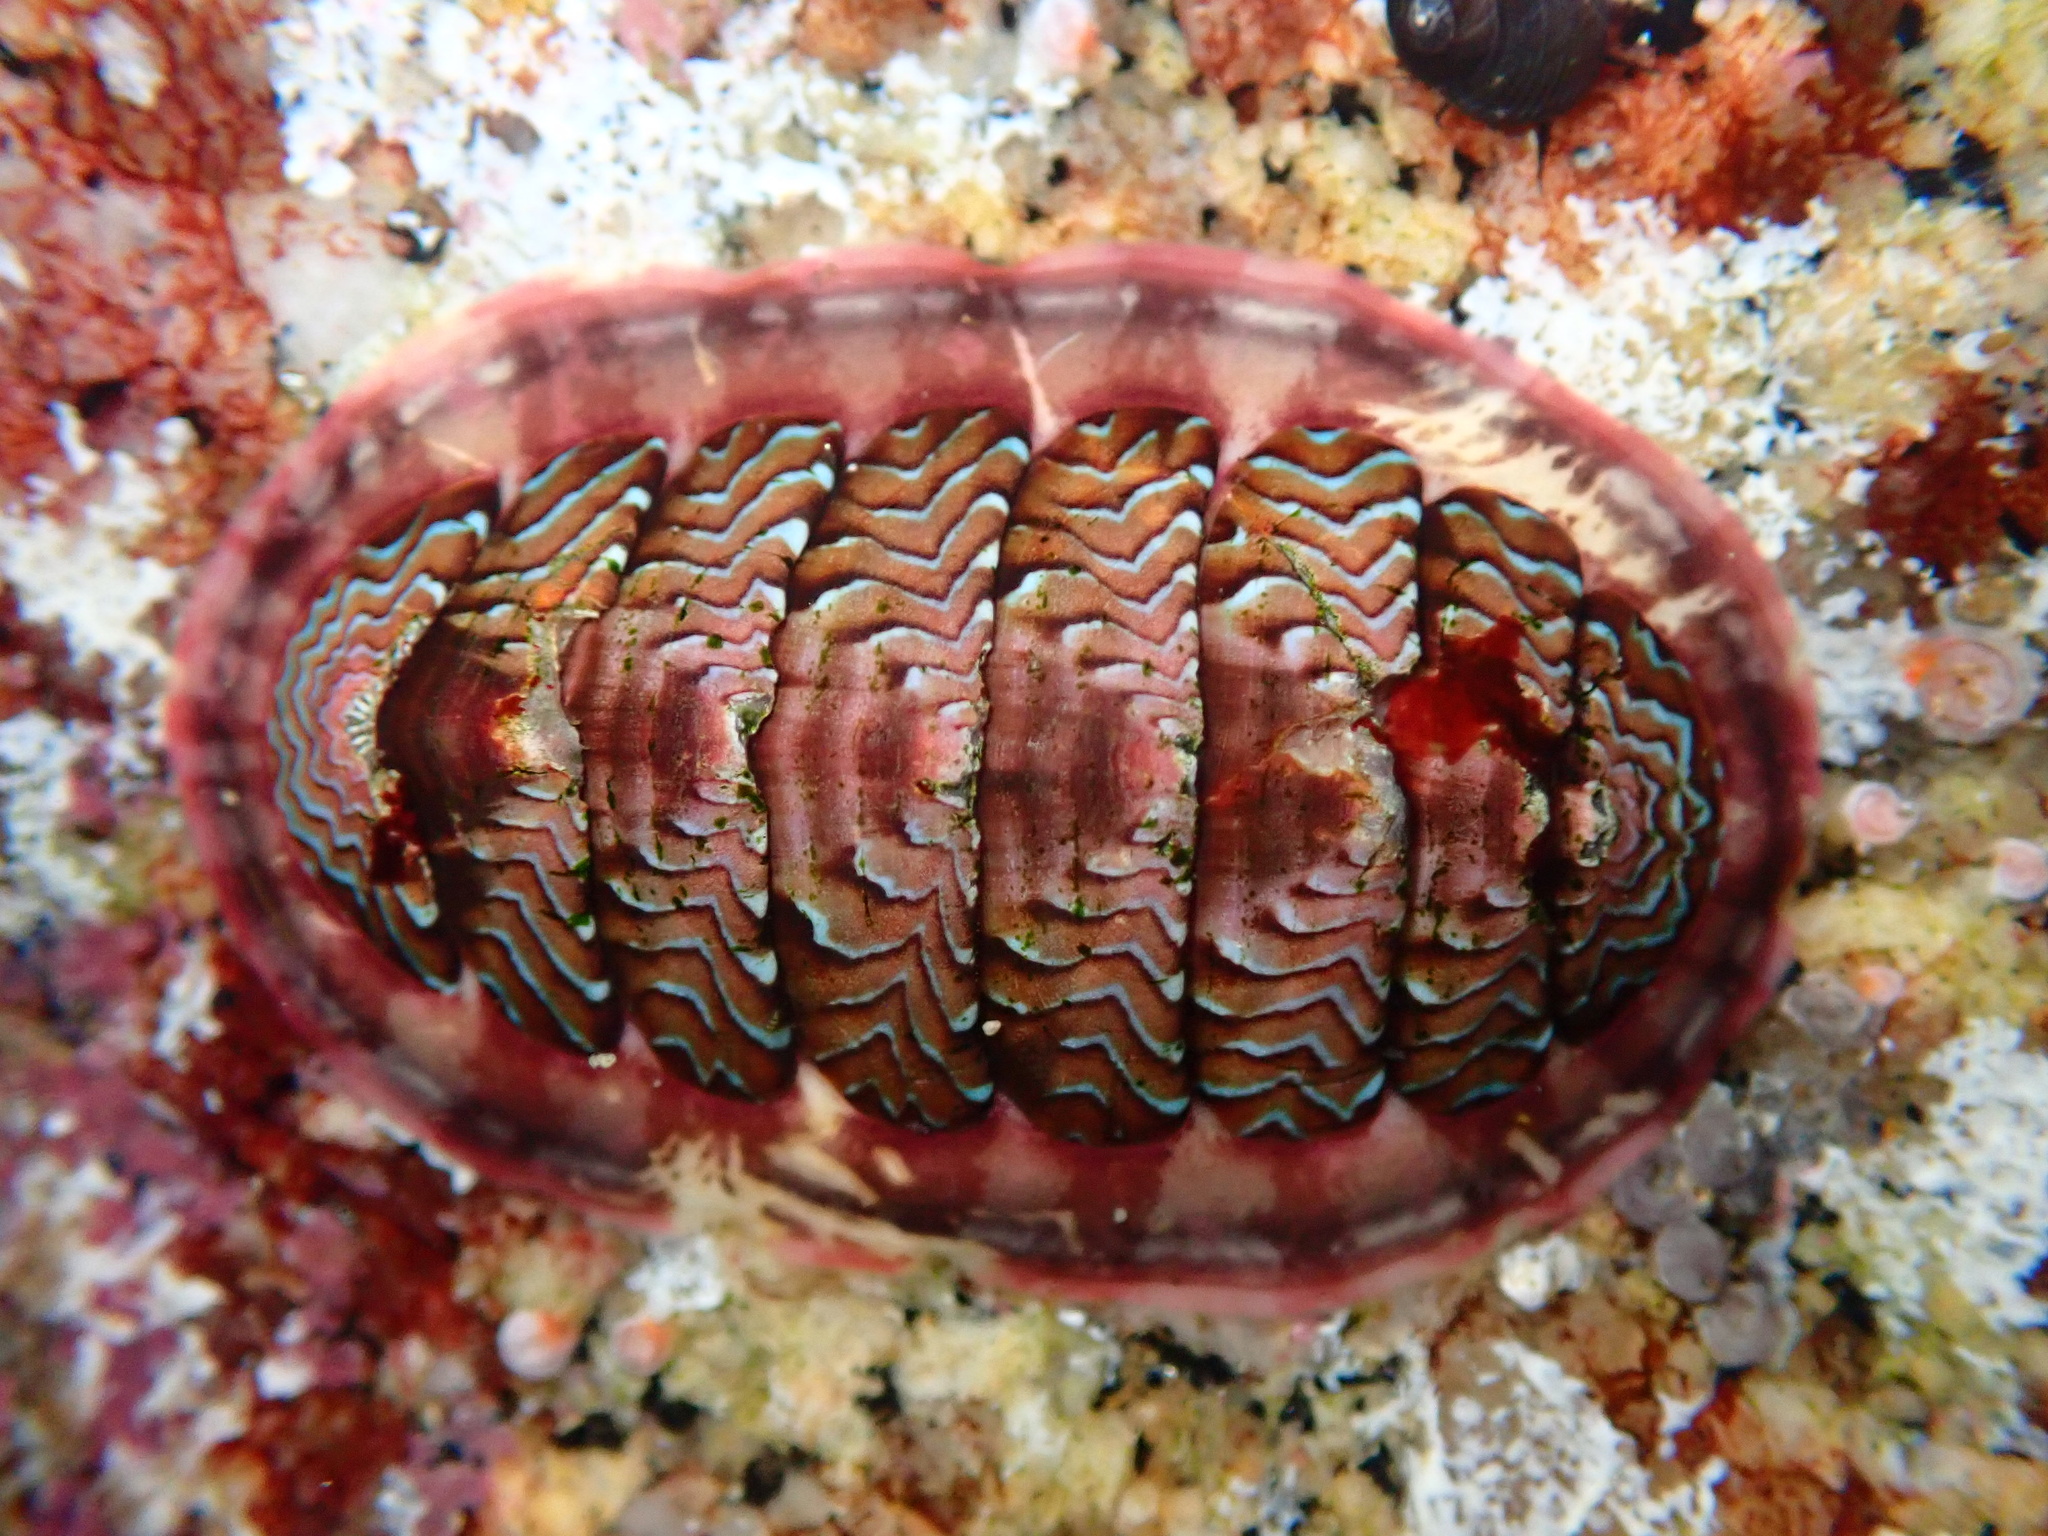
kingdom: Animalia
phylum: Mollusca
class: Polyplacophora
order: Chitonida
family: Tonicellidae
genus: Tonicella
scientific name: Tonicella lokii
